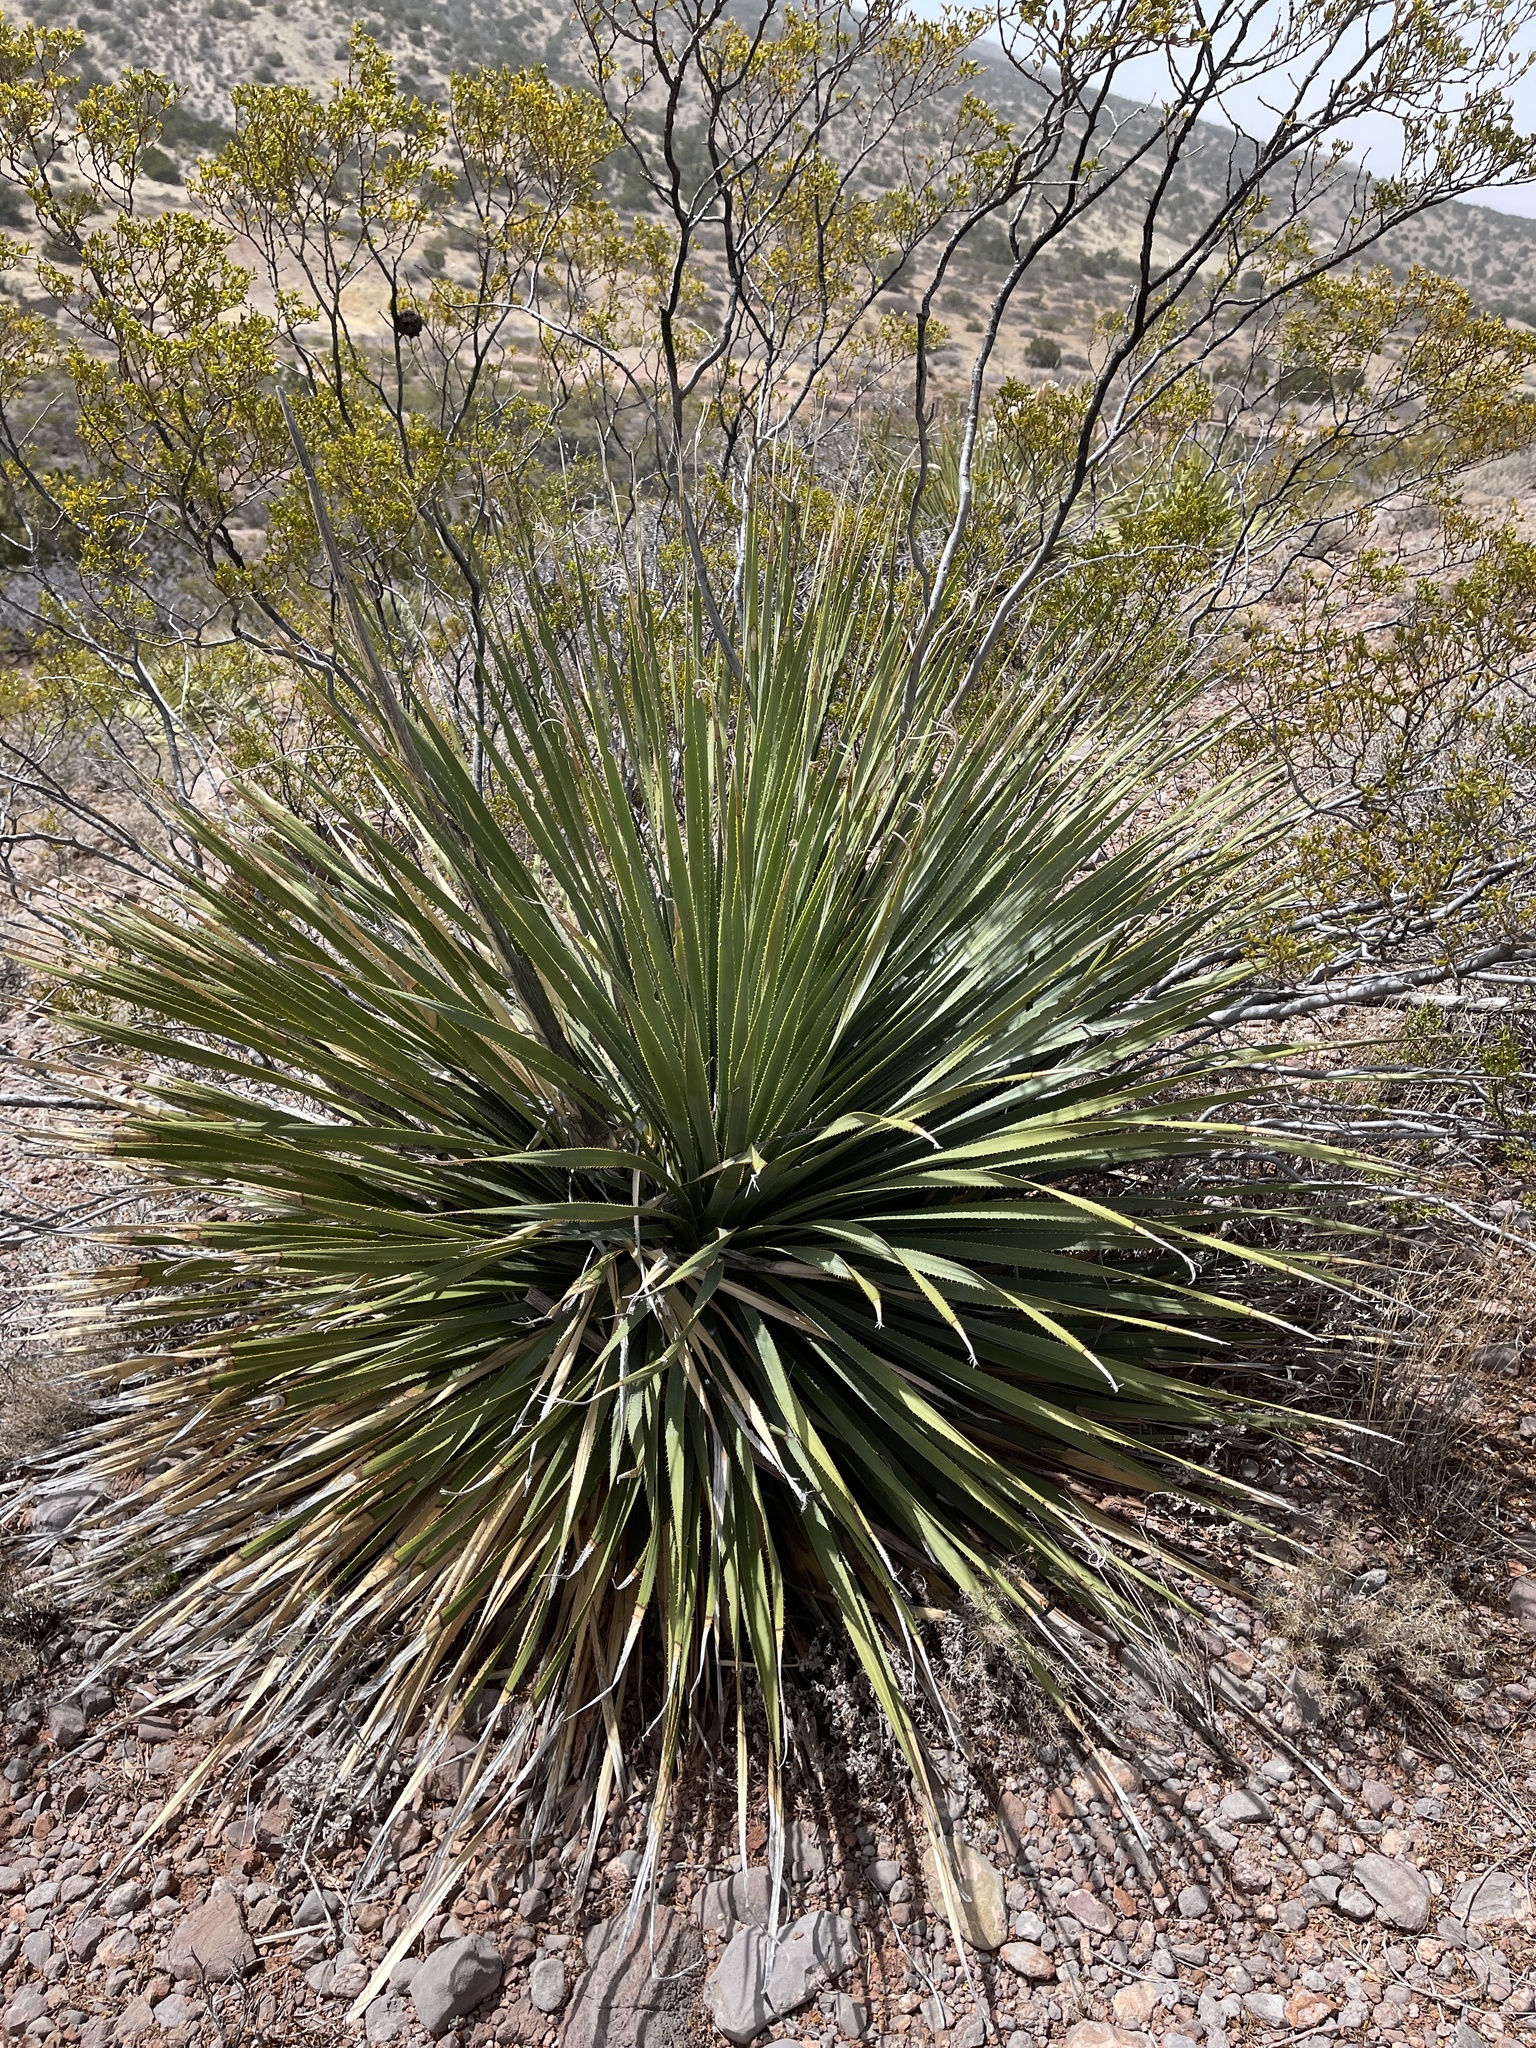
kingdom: Plantae
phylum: Tracheophyta
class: Liliopsida
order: Asparagales
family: Asparagaceae
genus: Dasylirion
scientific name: Dasylirion wheeleri
